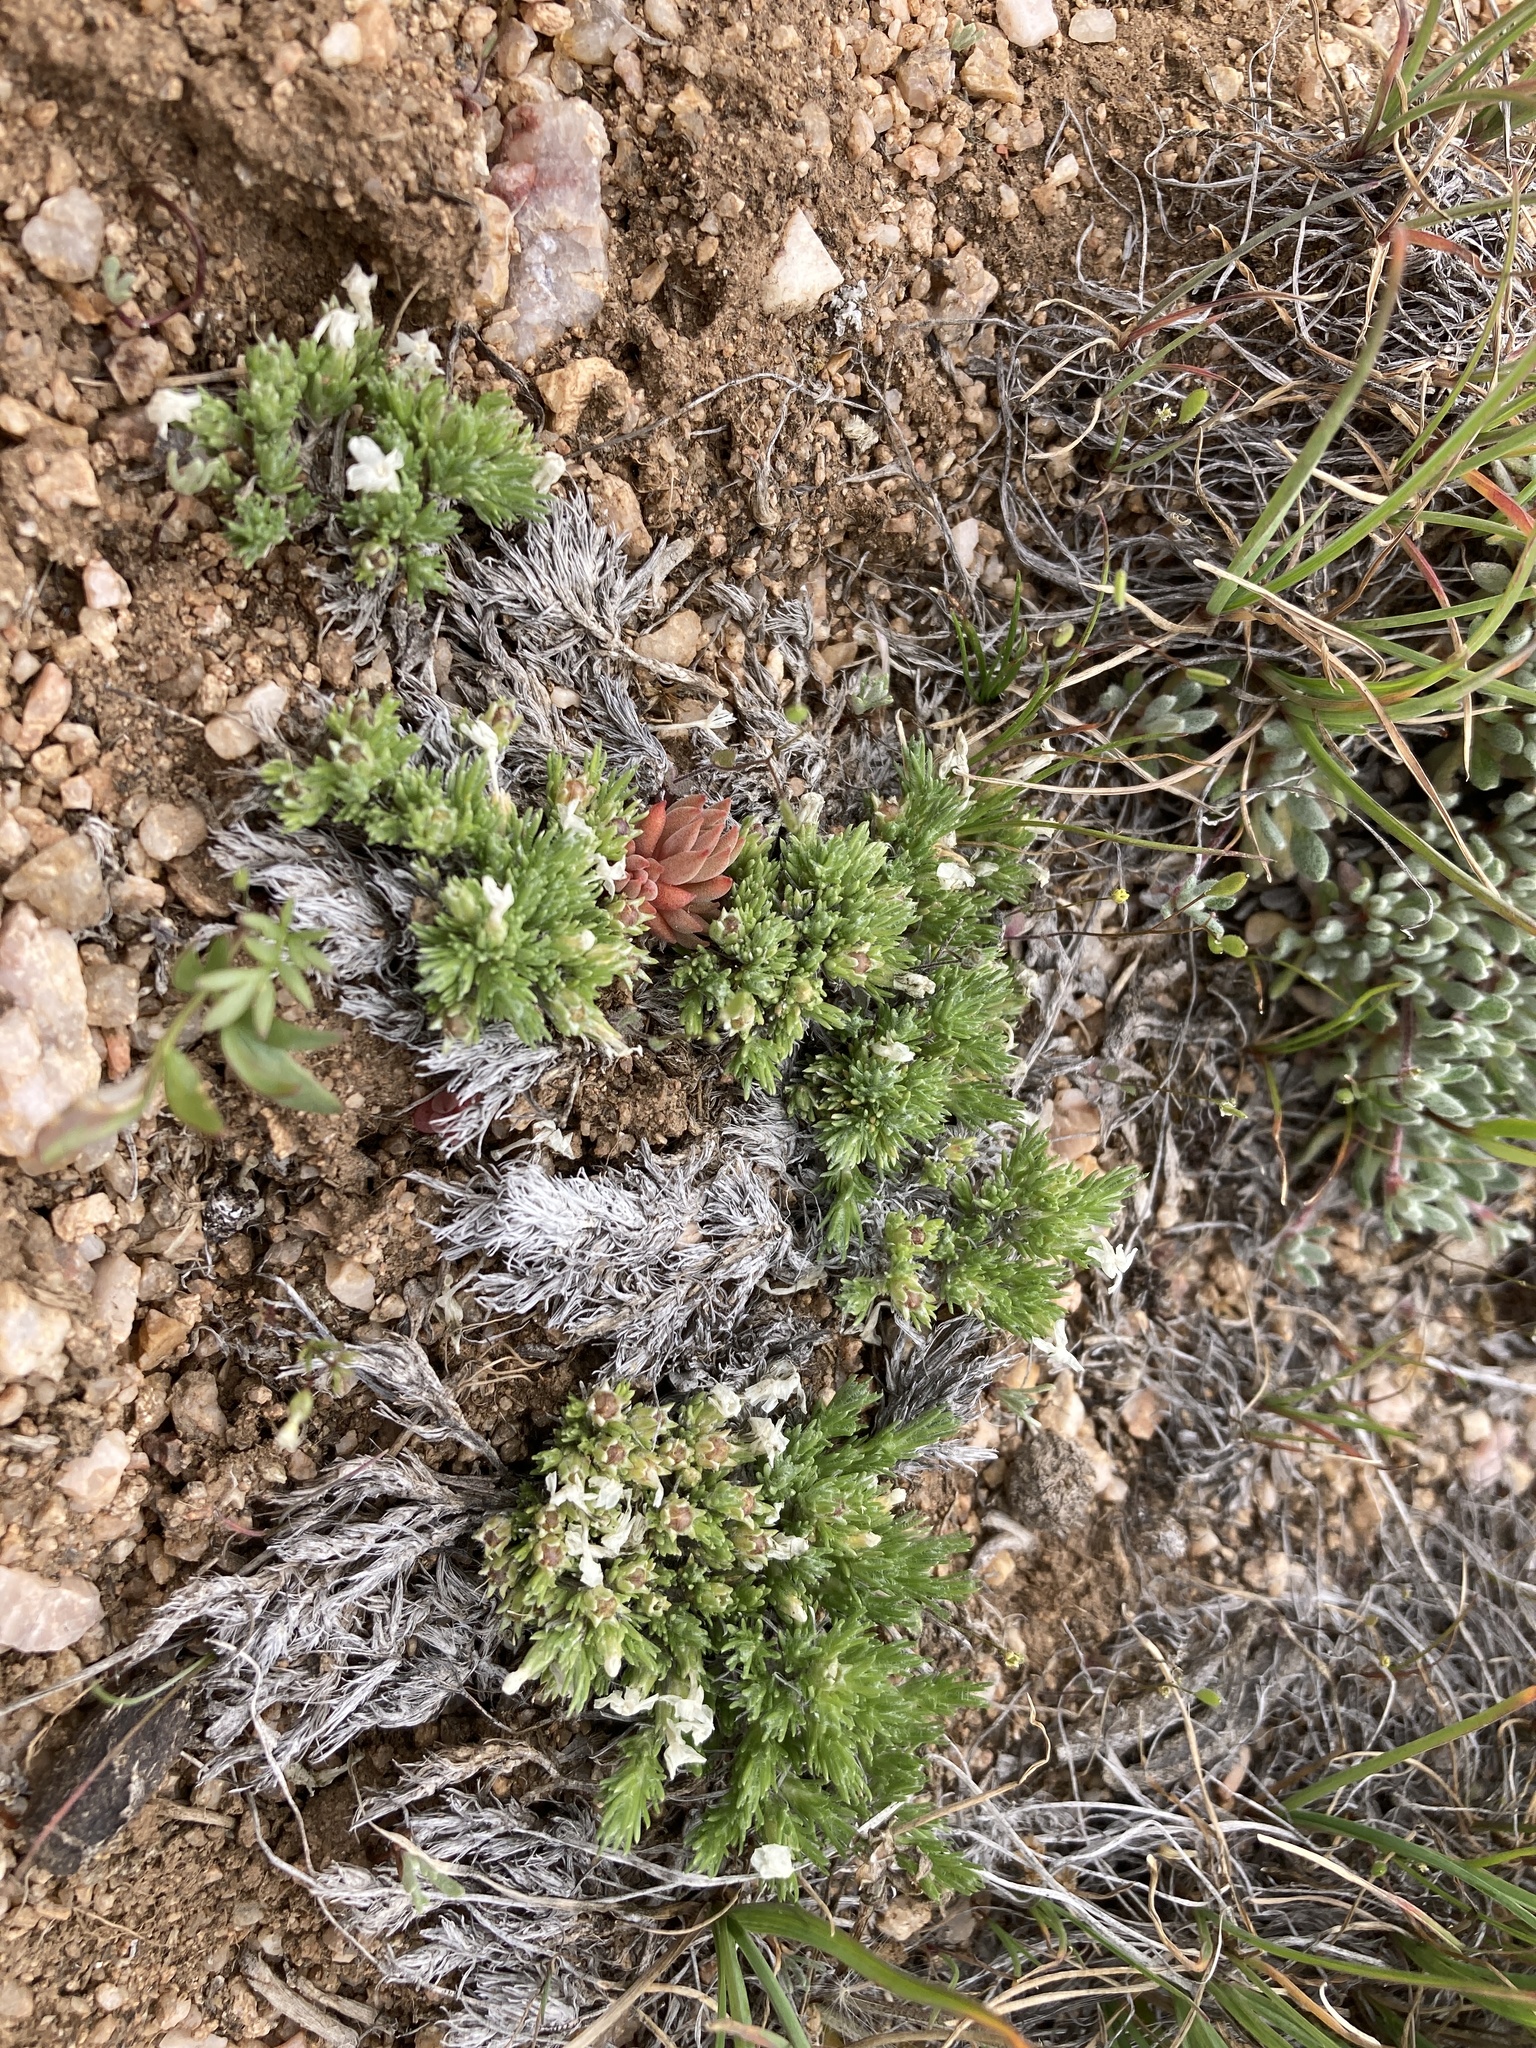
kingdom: Plantae
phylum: Tracheophyta
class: Magnoliopsida
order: Ericales
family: Polemoniaceae
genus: Phlox
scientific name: Phlox hoodii
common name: Moss phlox
